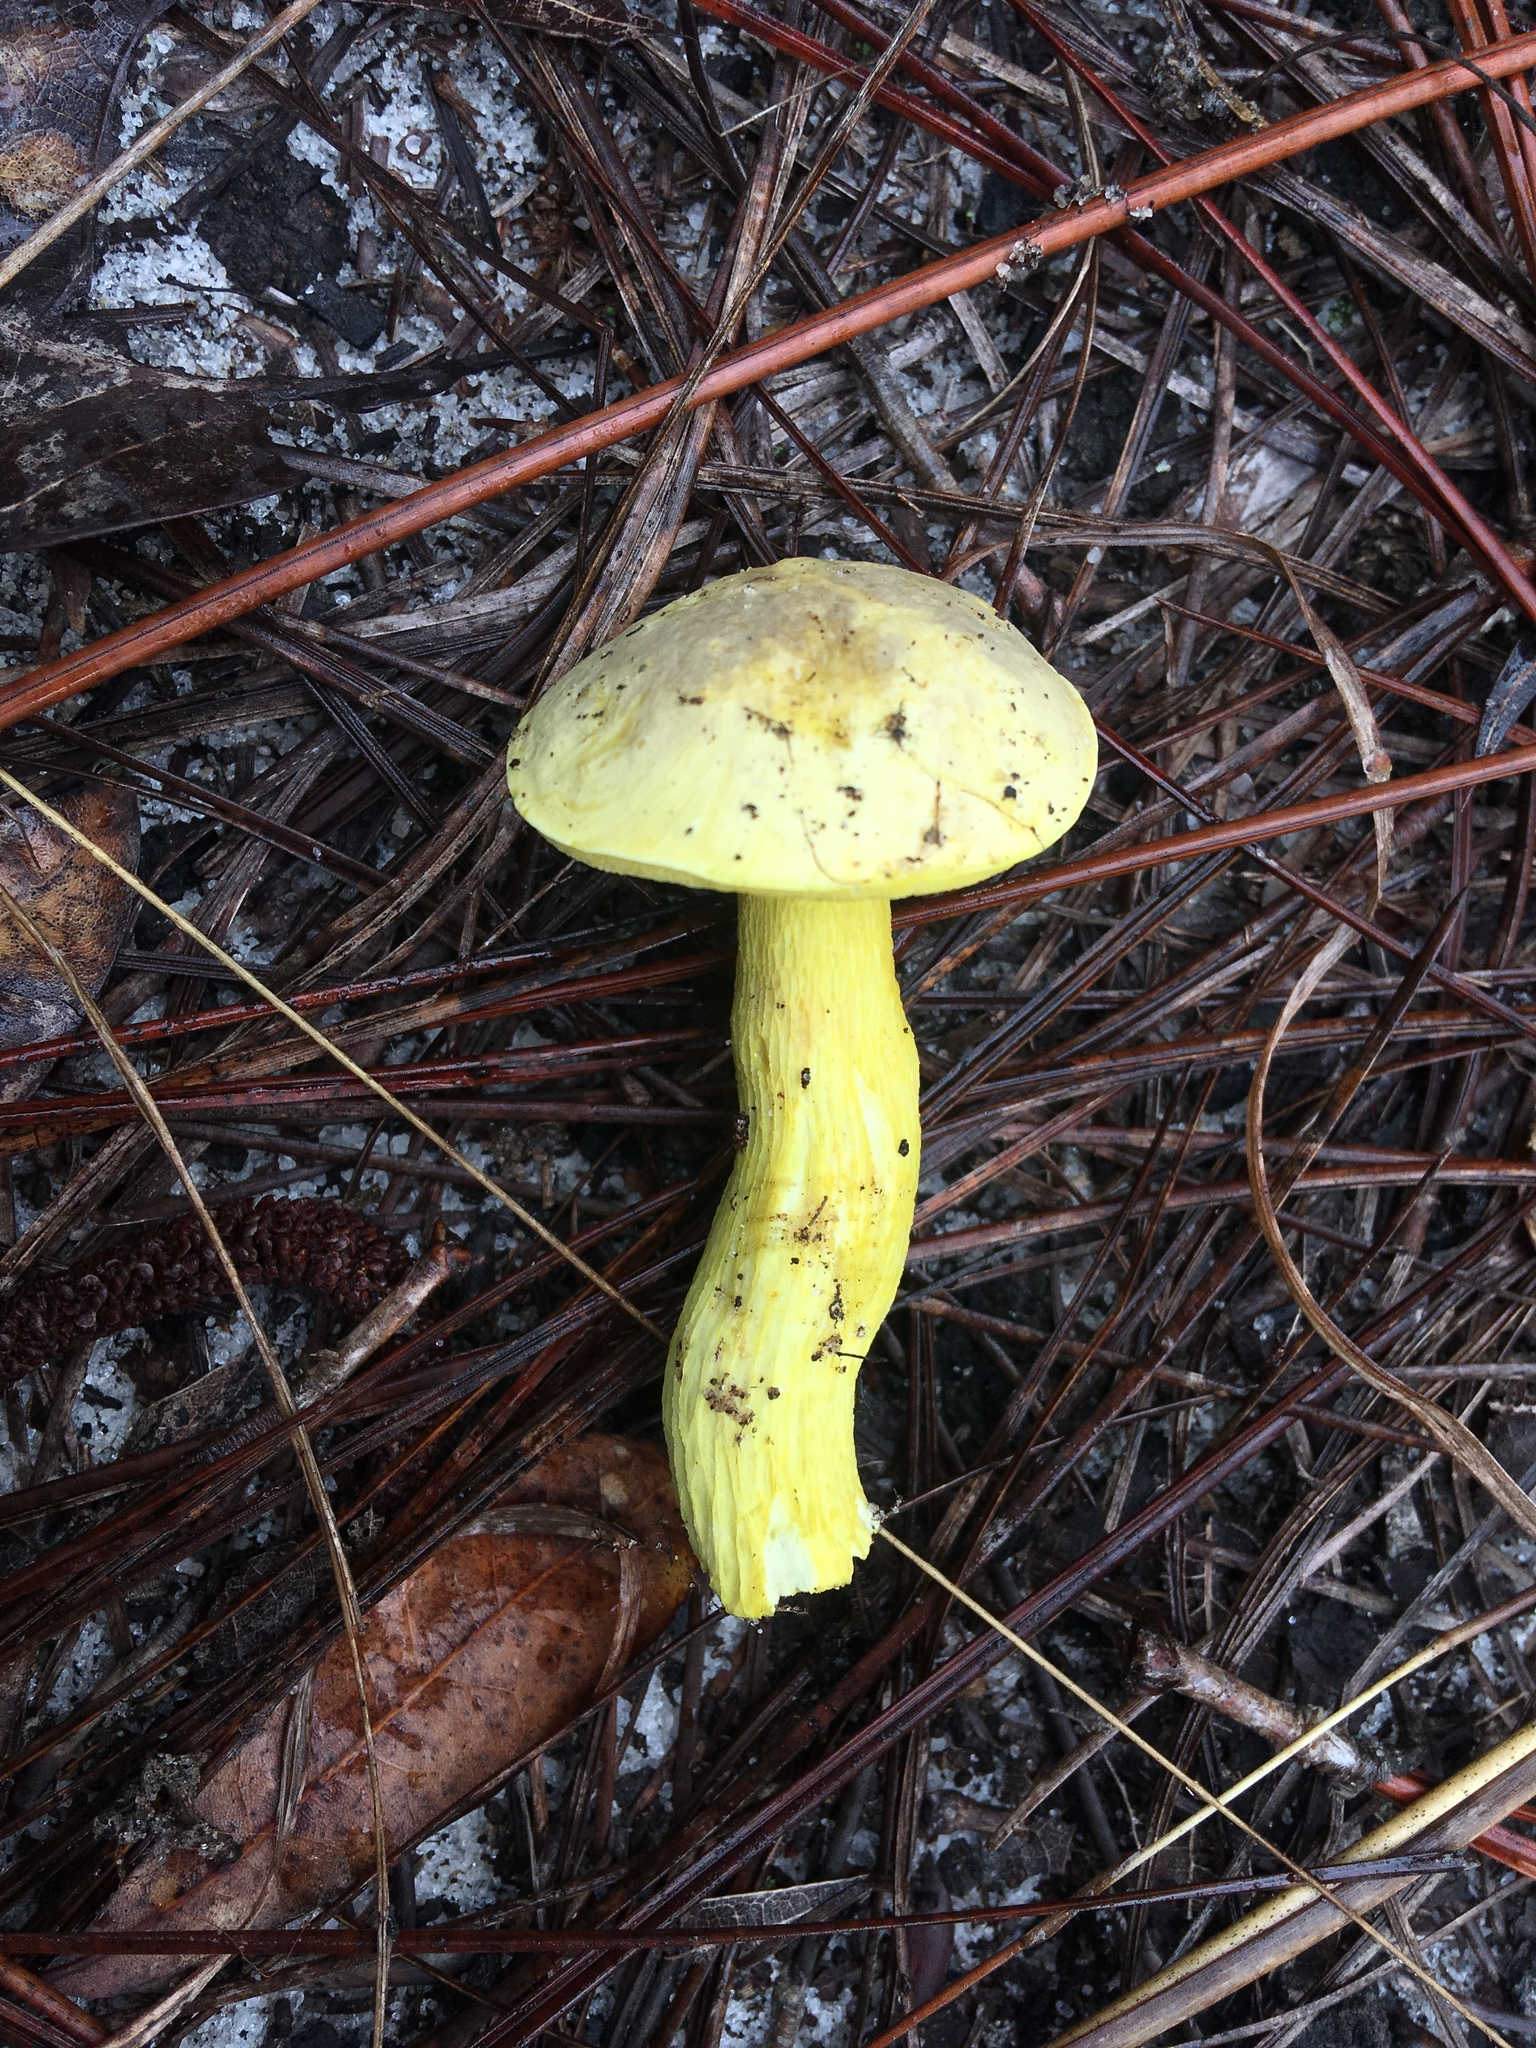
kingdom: Fungi
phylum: Basidiomycota
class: Agaricomycetes
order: Boletales
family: Boletaceae
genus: Retiboletus
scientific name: Retiboletus ornatipes
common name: Ornate-stalked bolete
